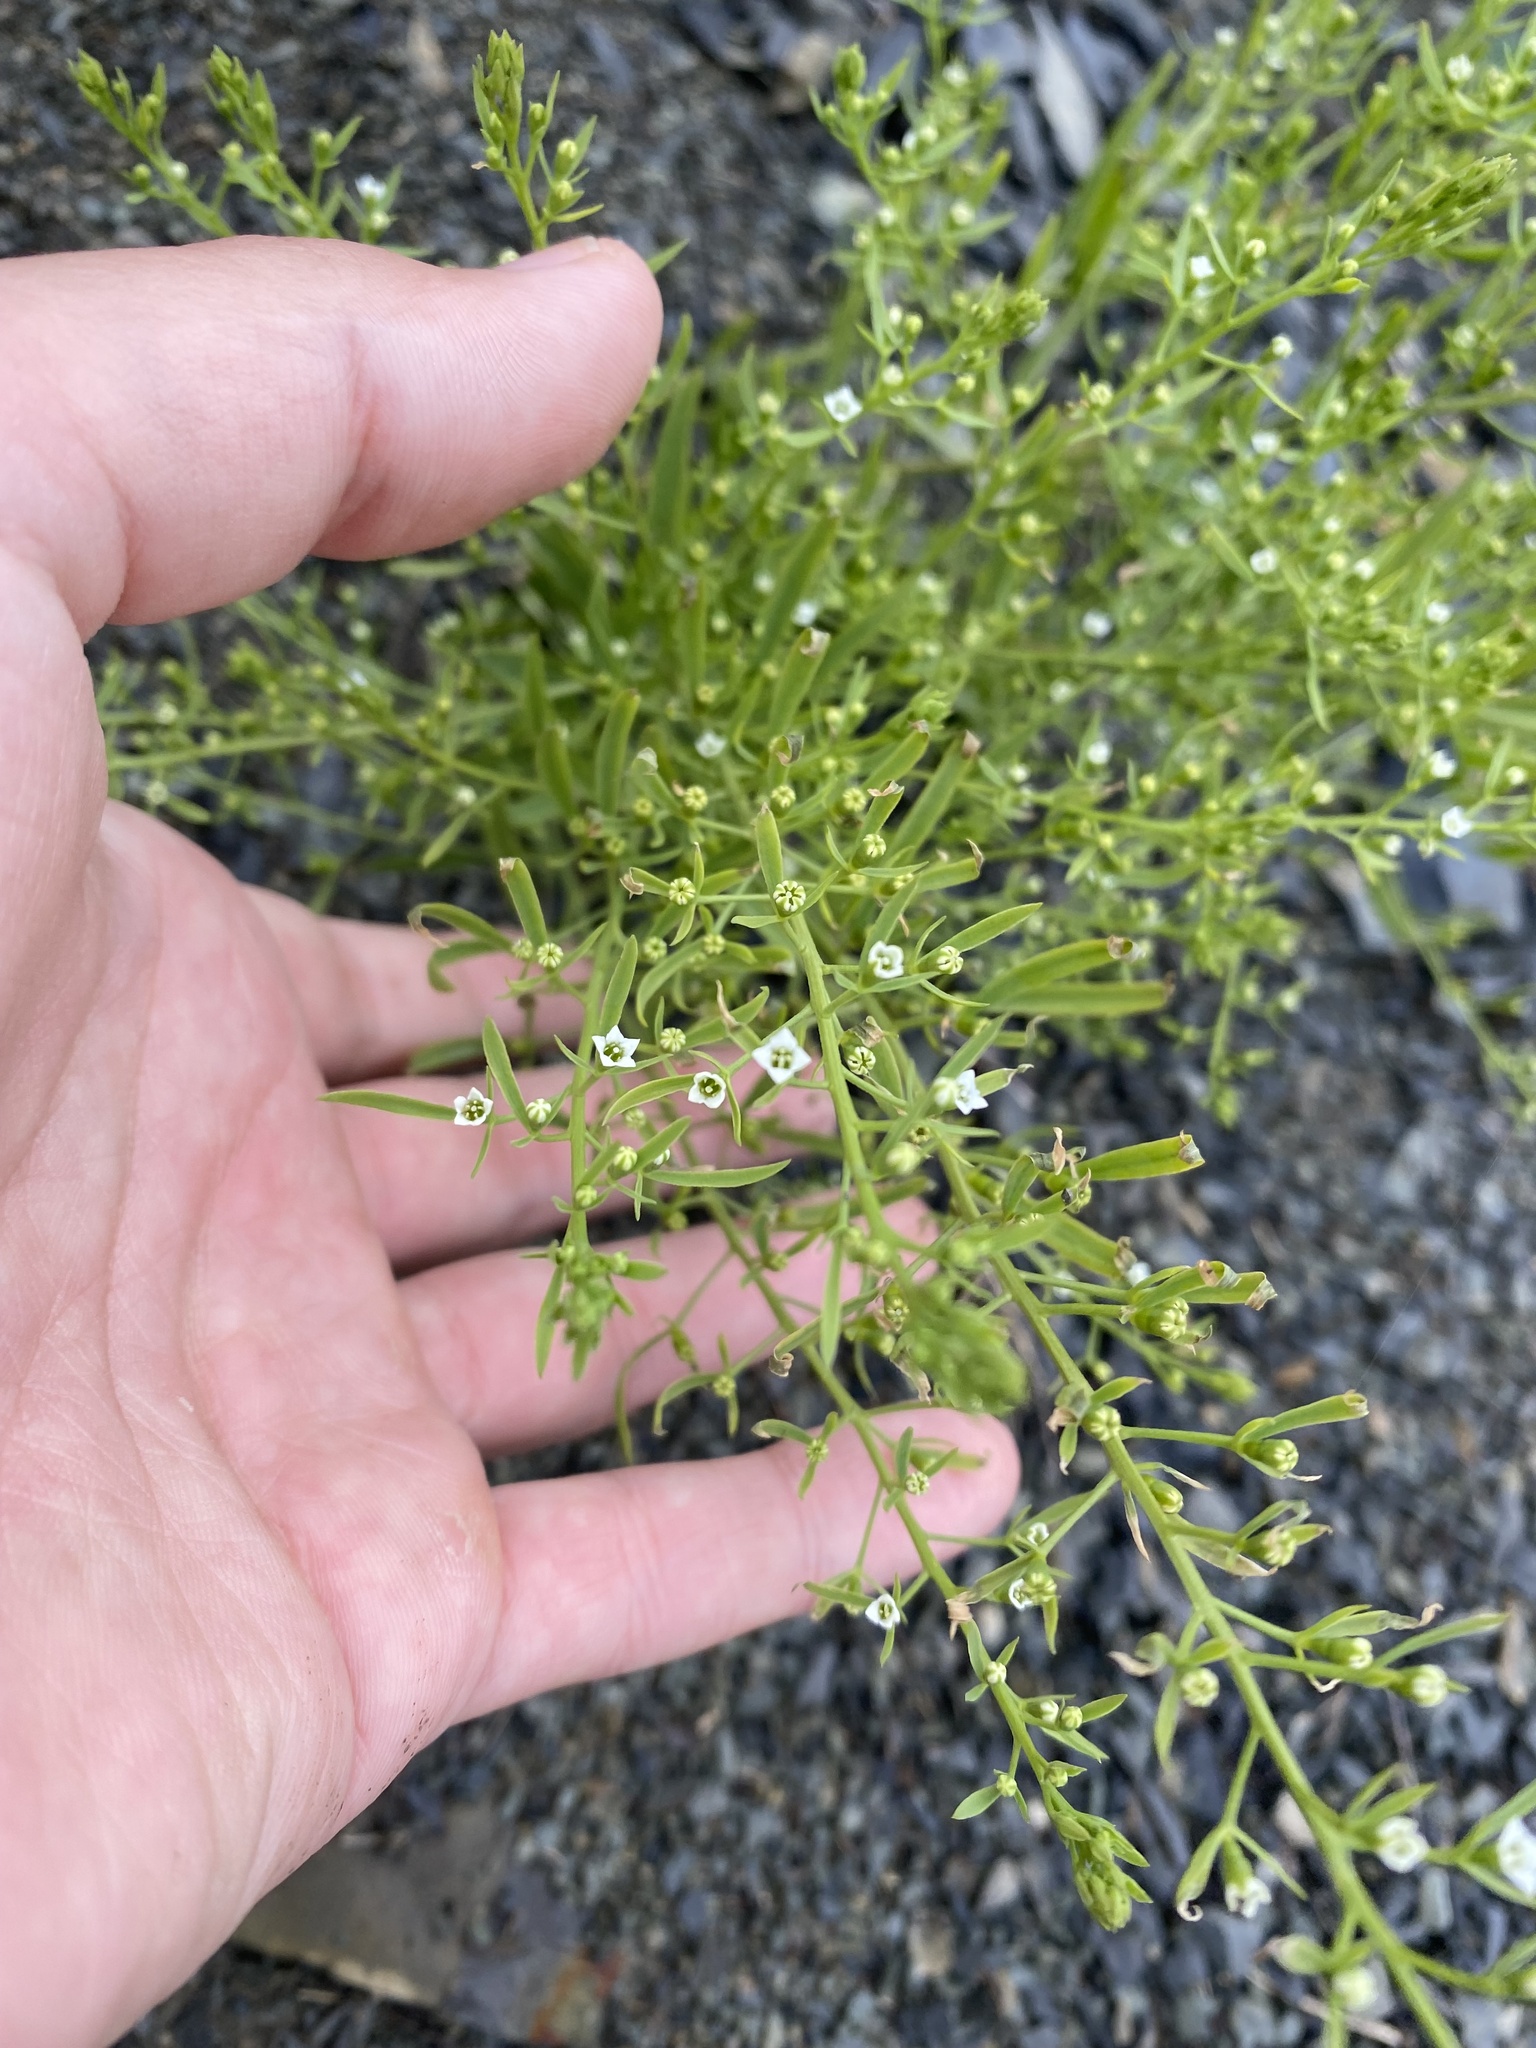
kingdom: Plantae
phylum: Tracheophyta
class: Magnoliopsida
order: Santalales
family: Thesiaceae
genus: Thesium
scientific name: Thesium ramosum
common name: Field thesium
